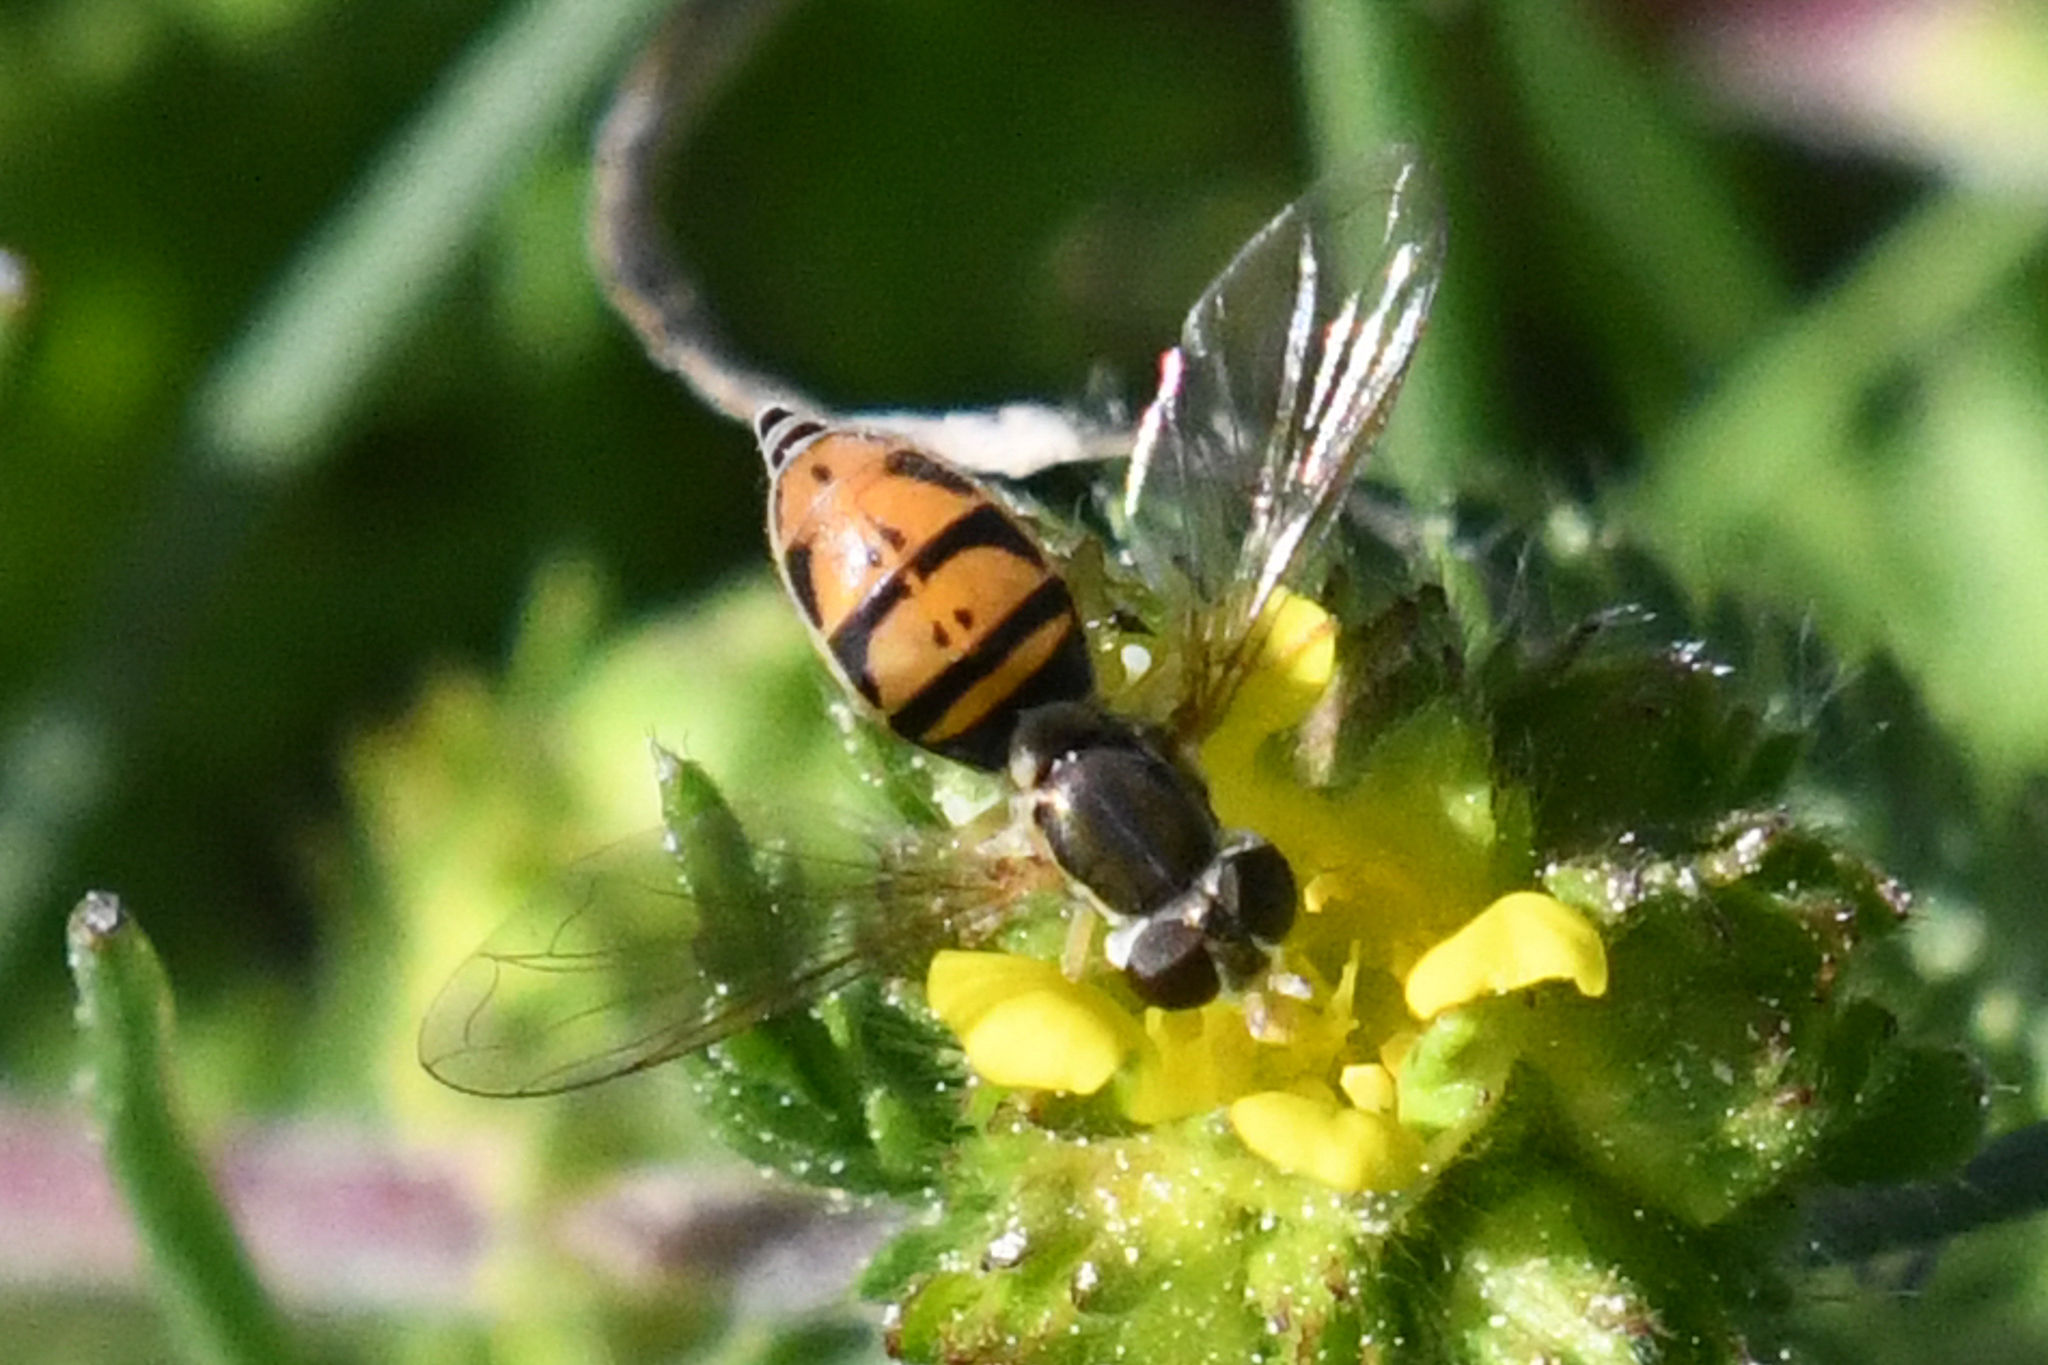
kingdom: Animalia
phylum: Arthropoda
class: Insecta
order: Diptera
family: Syrphidae
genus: Toxomerus
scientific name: Toxomerus marginatus
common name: Syrphid fly
